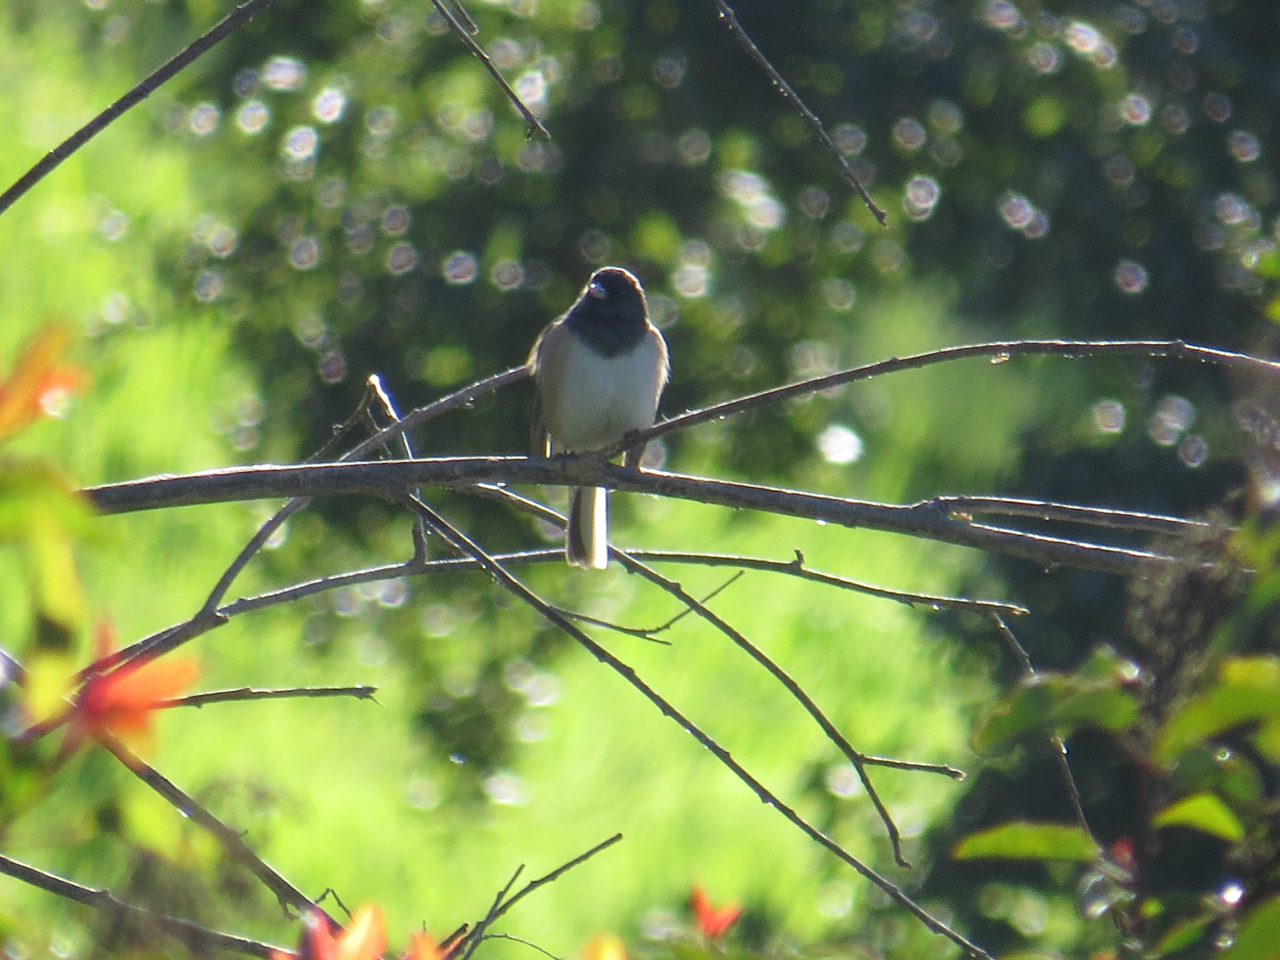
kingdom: Animalia
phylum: Chordata
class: Aves
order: Passeriformes
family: Passerellidae
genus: Junco
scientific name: Junco hyemalis
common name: Dark-eyed junco
